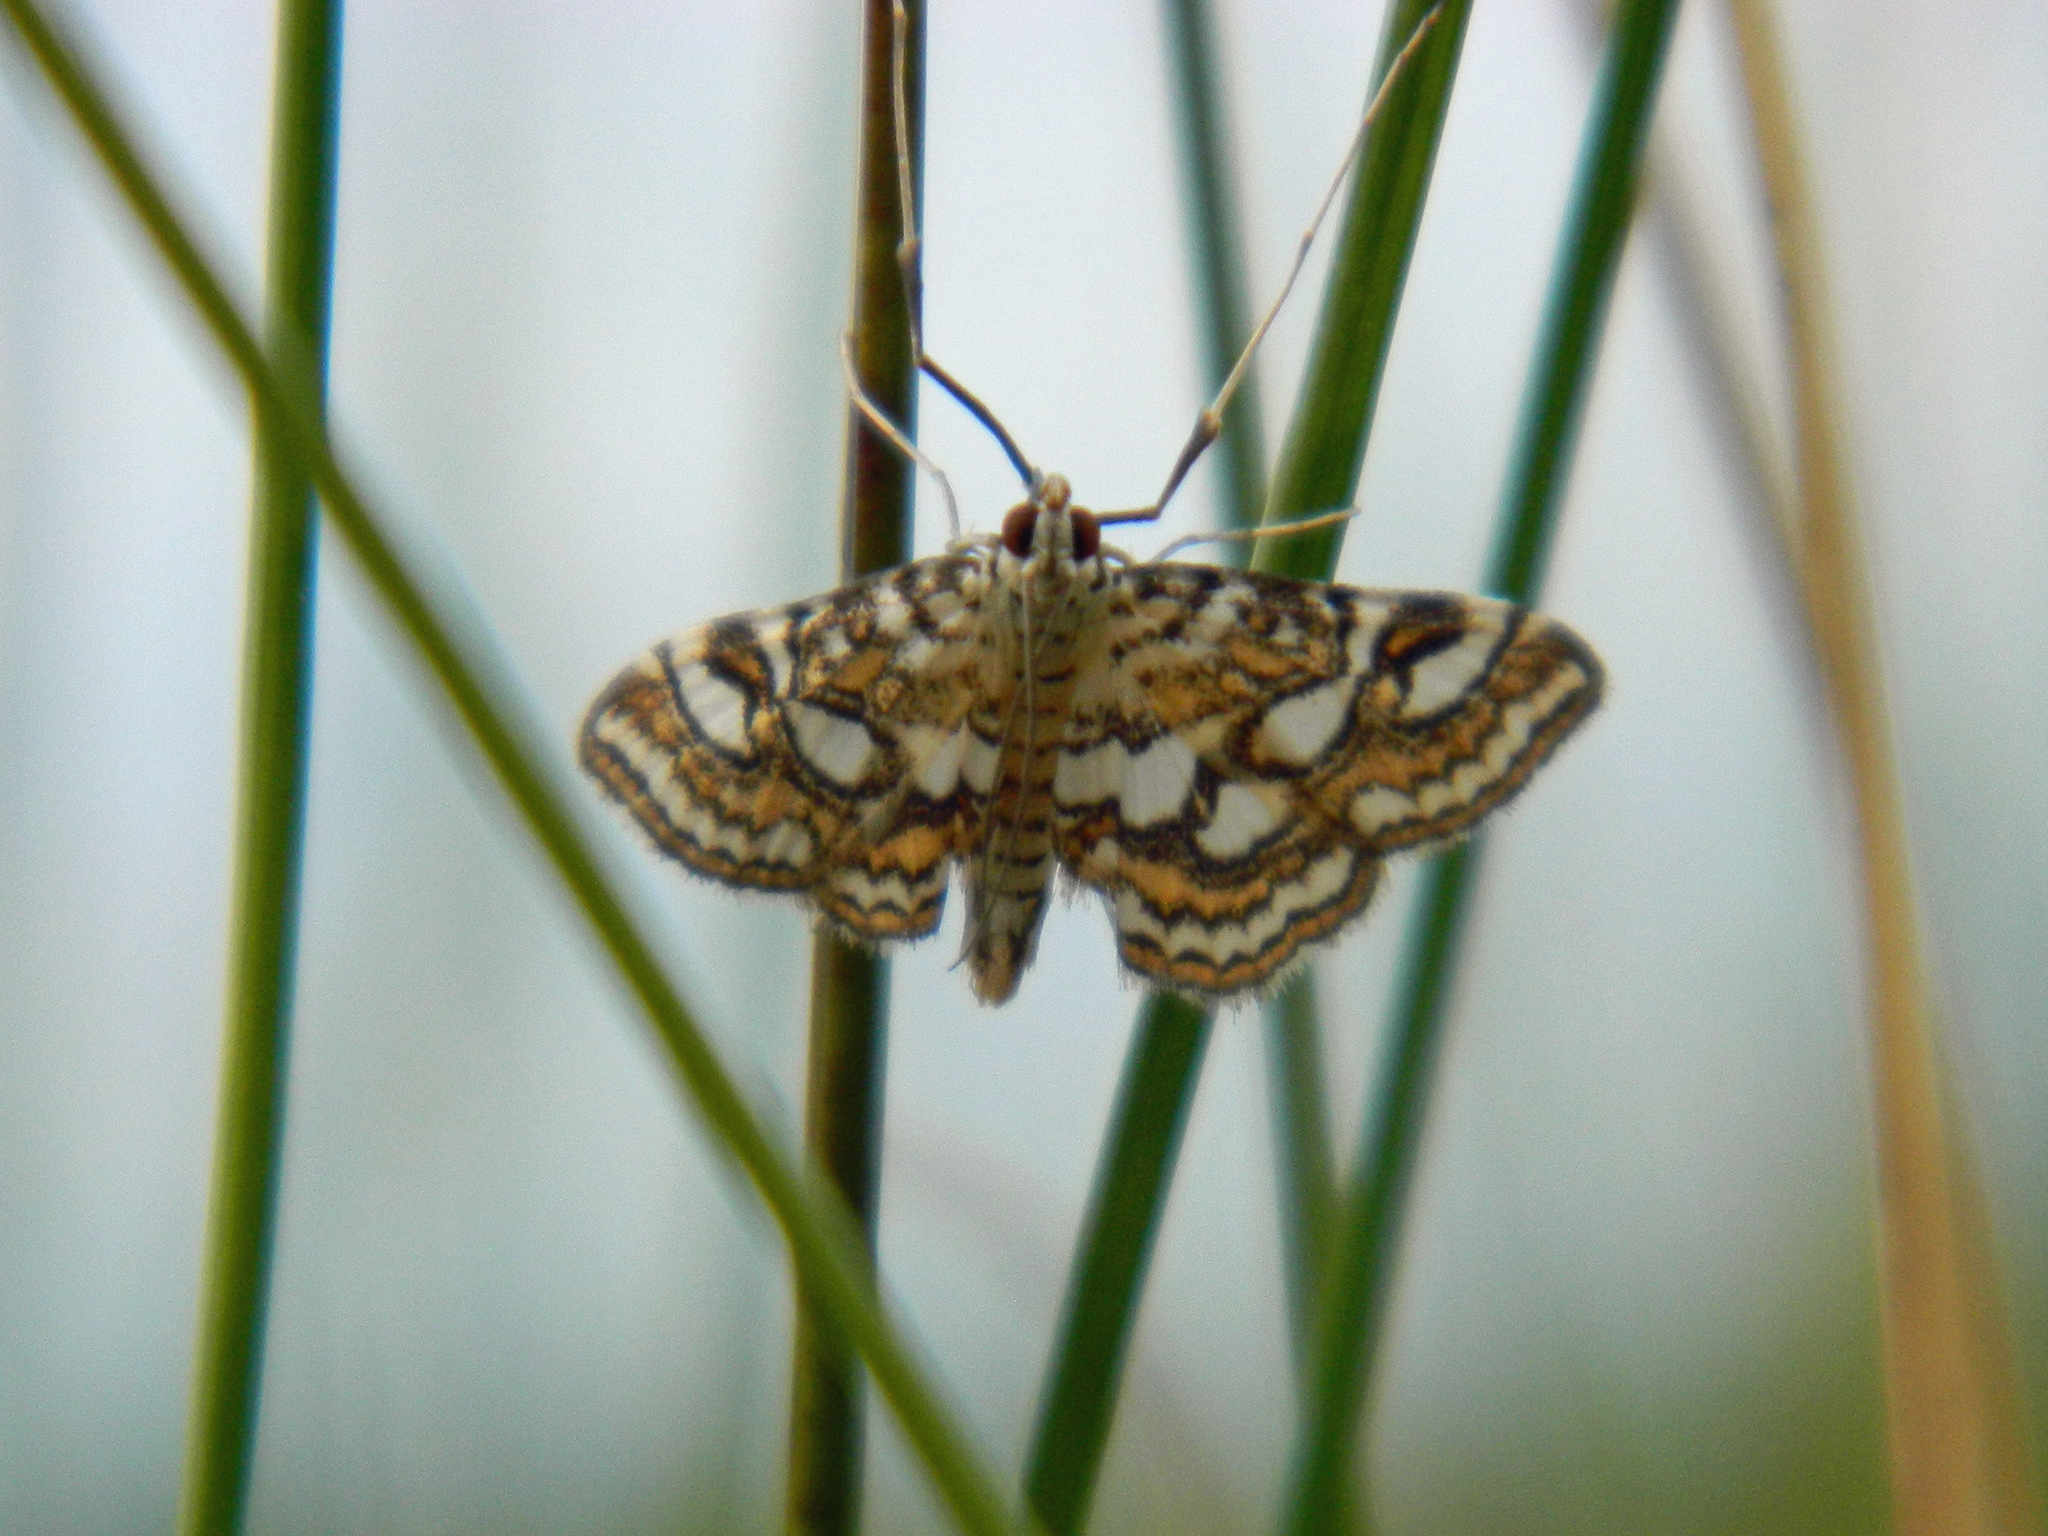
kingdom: Animalia
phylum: Arthropoda
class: Insecta
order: Lepidoptera
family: Crambidae
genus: Elophila
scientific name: Elophila ekthlipsis
